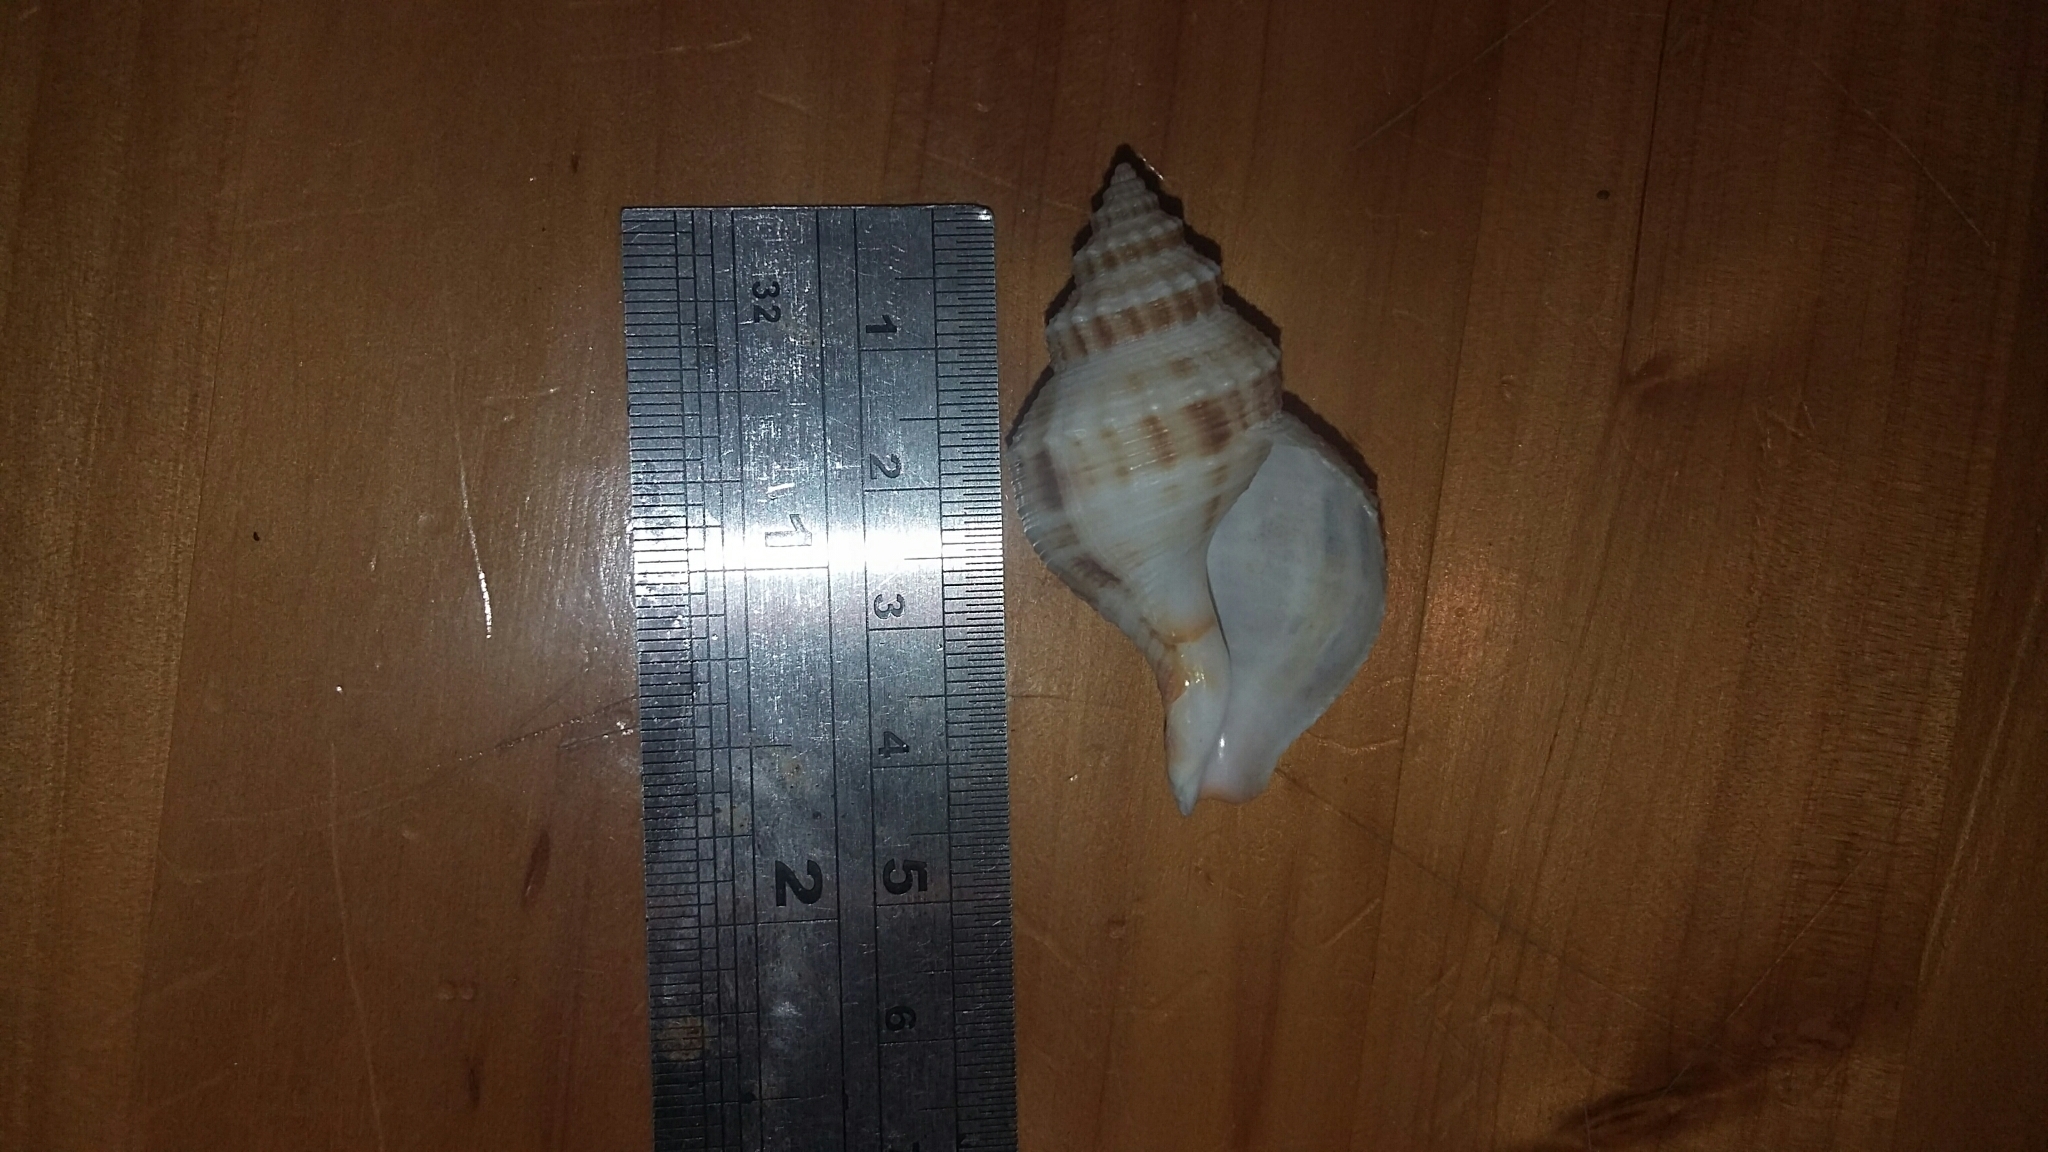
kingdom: Animalia
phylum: Mollusca
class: Gastropoda
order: Neogastropoda
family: Prosiphonidae
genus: Austrofusus
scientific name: Austrofusus glans
